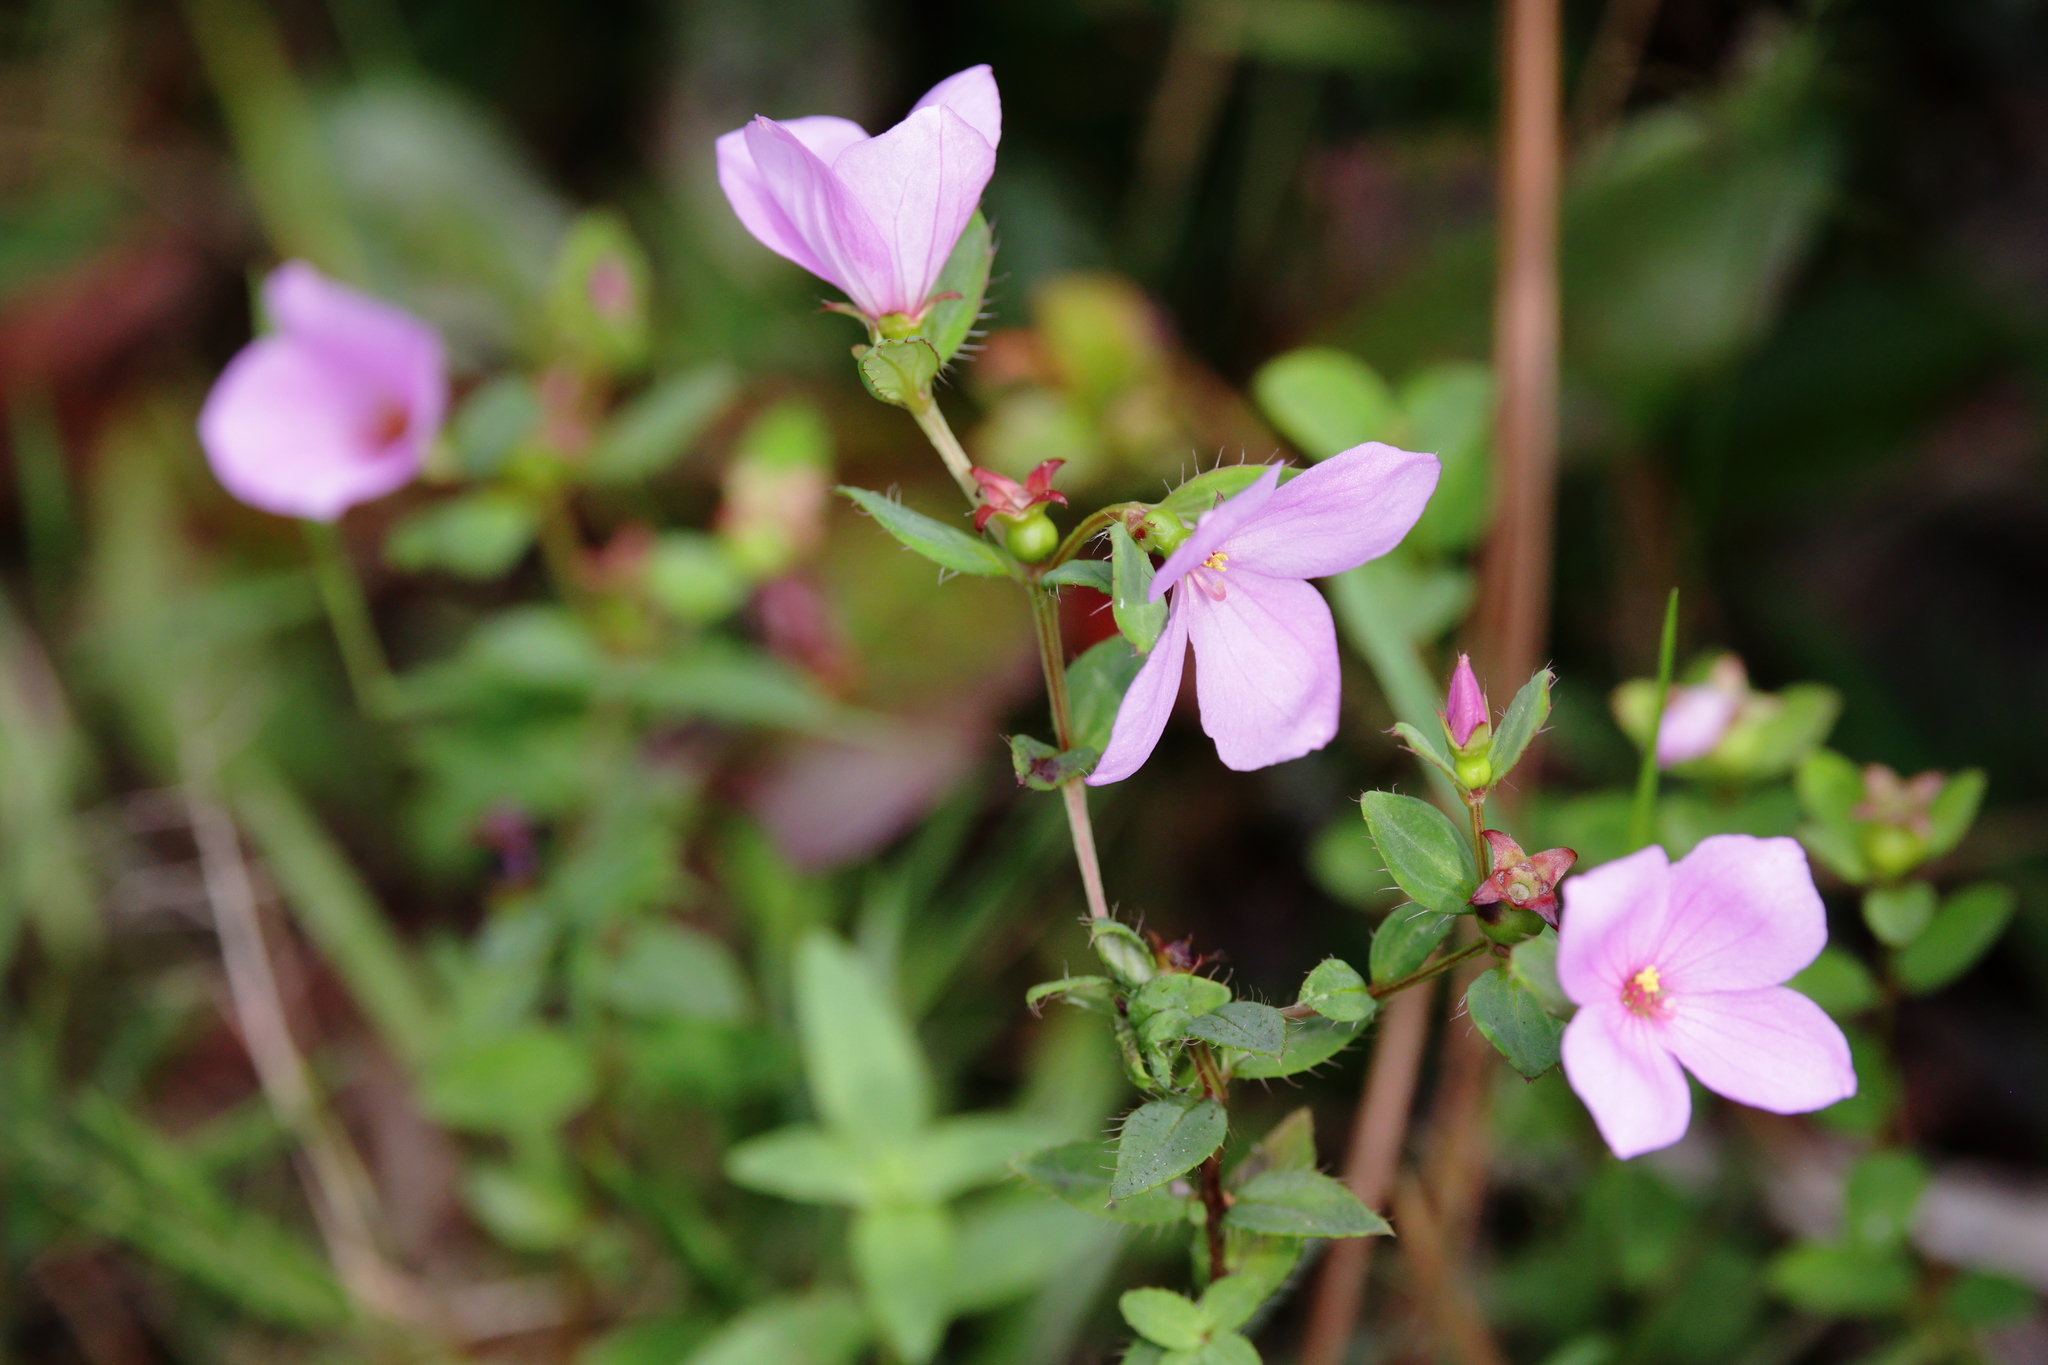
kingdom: Plantae
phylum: Tracheophyta
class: Magnoliopsida
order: Myrtales
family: Melastomataceae
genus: Rhexia
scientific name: Rhexia petiolata
